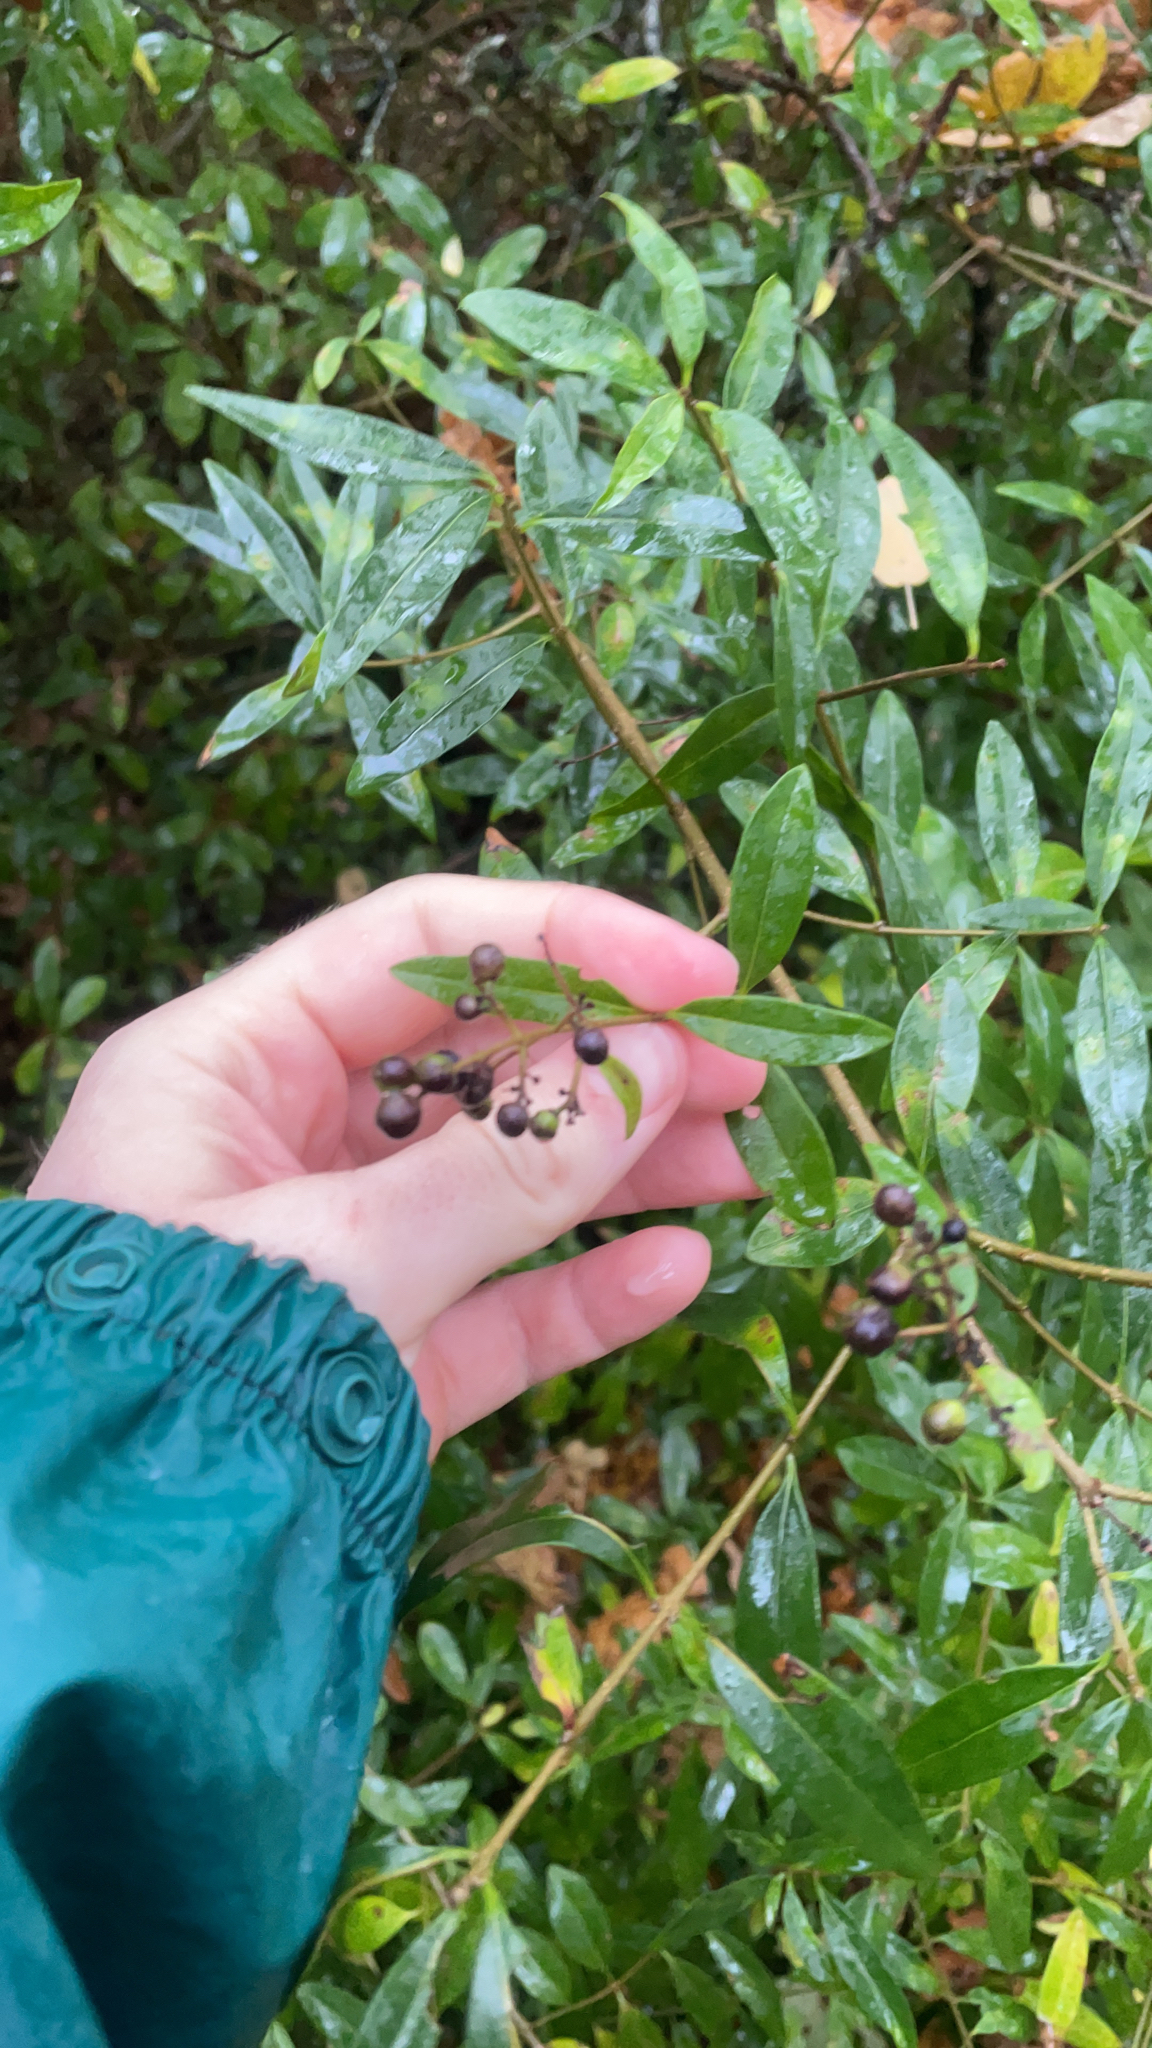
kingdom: Plantae
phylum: Tracheophyta
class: Magnoliopsida
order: Lamiales
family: Oleaceae
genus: Ligustrum
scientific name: Ligustrum vulgare
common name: Wild privet
